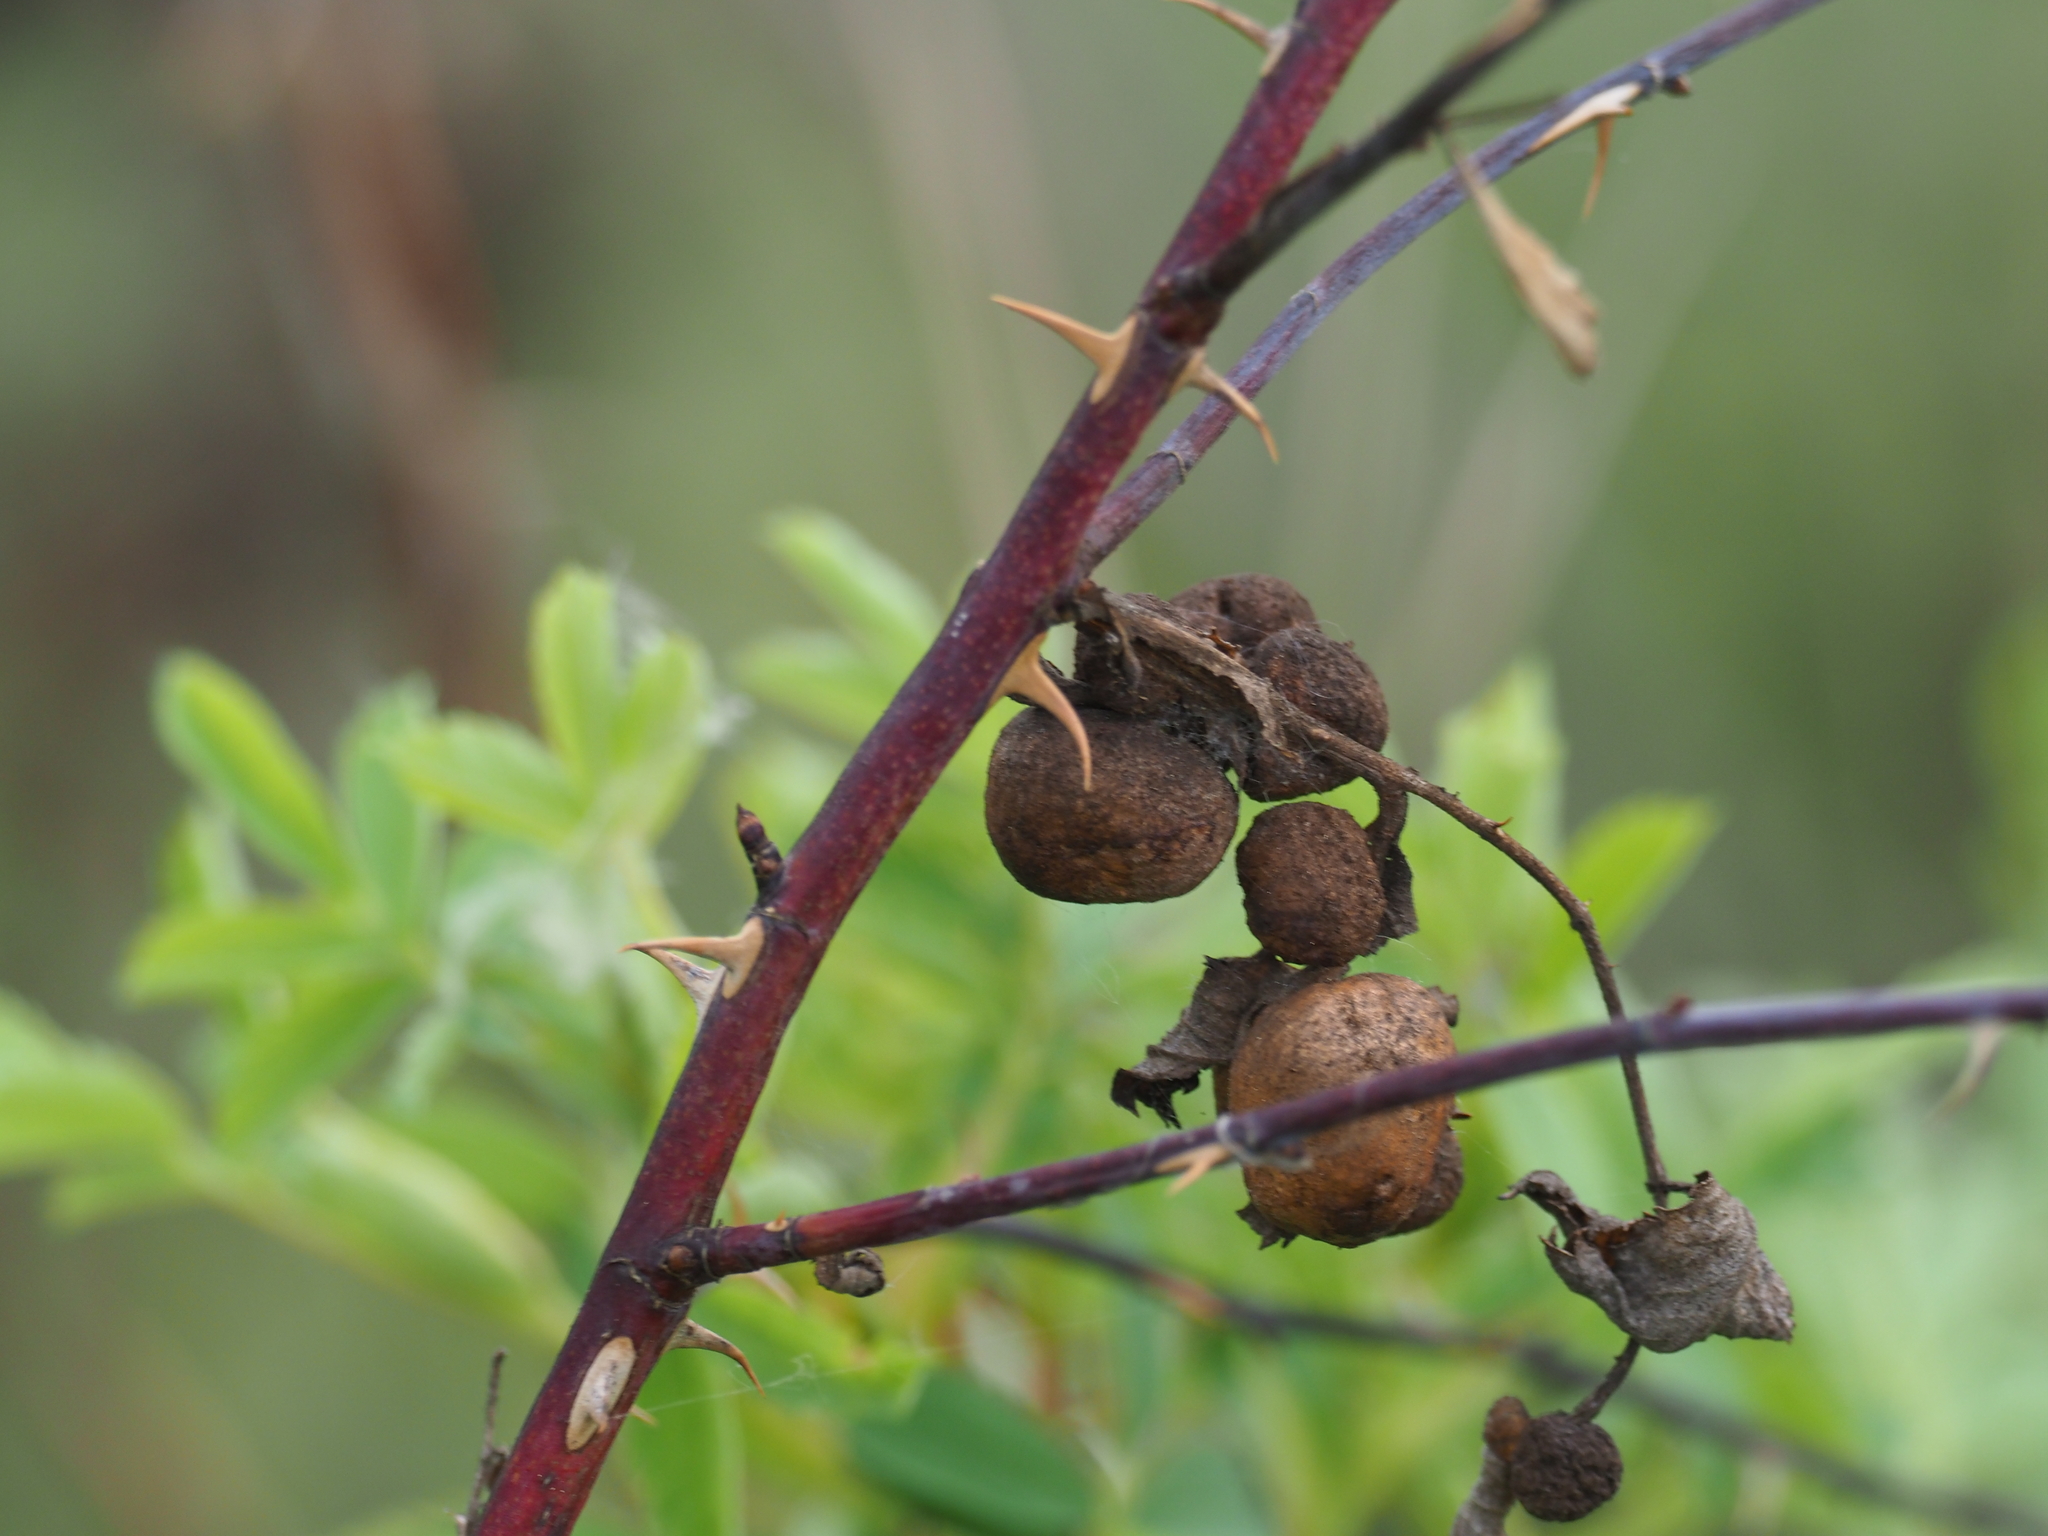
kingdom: Animalia
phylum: Arthropoda
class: Insecta
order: Hymenoptera
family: Cynipidae
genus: Diplolepis
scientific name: Diplolepis variabilis
